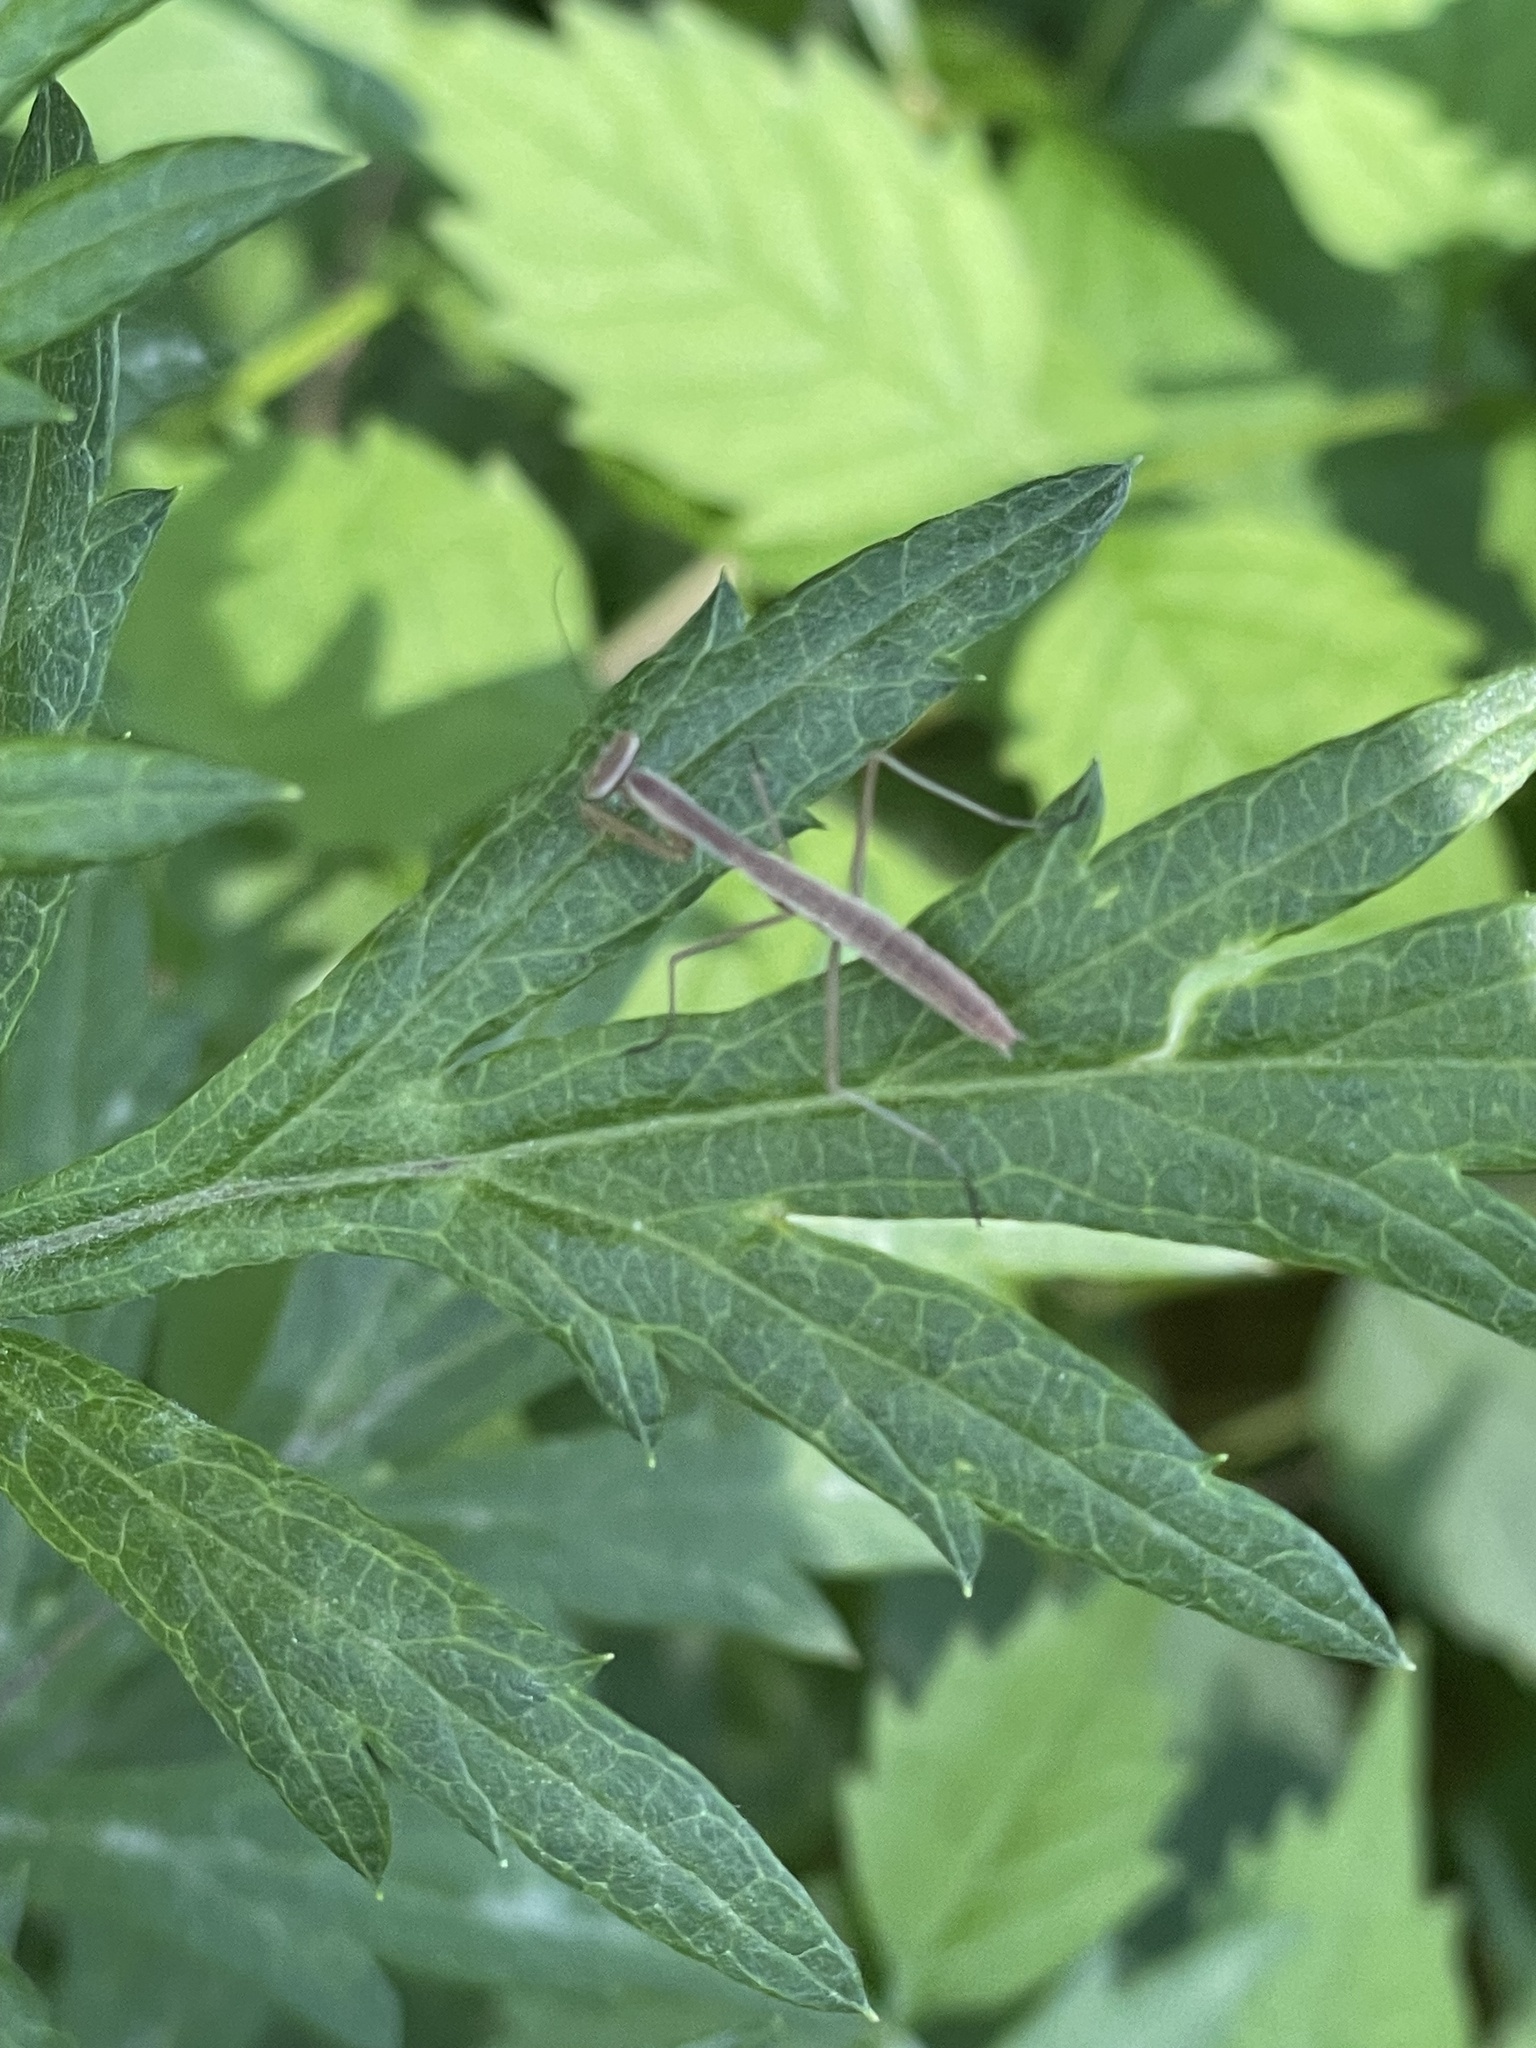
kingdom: Animalia
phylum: Arthropoda
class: Insecta
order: Mantodea
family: Mantidae
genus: Tenodera
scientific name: Tenodera sinensis
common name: Chinese mantis
